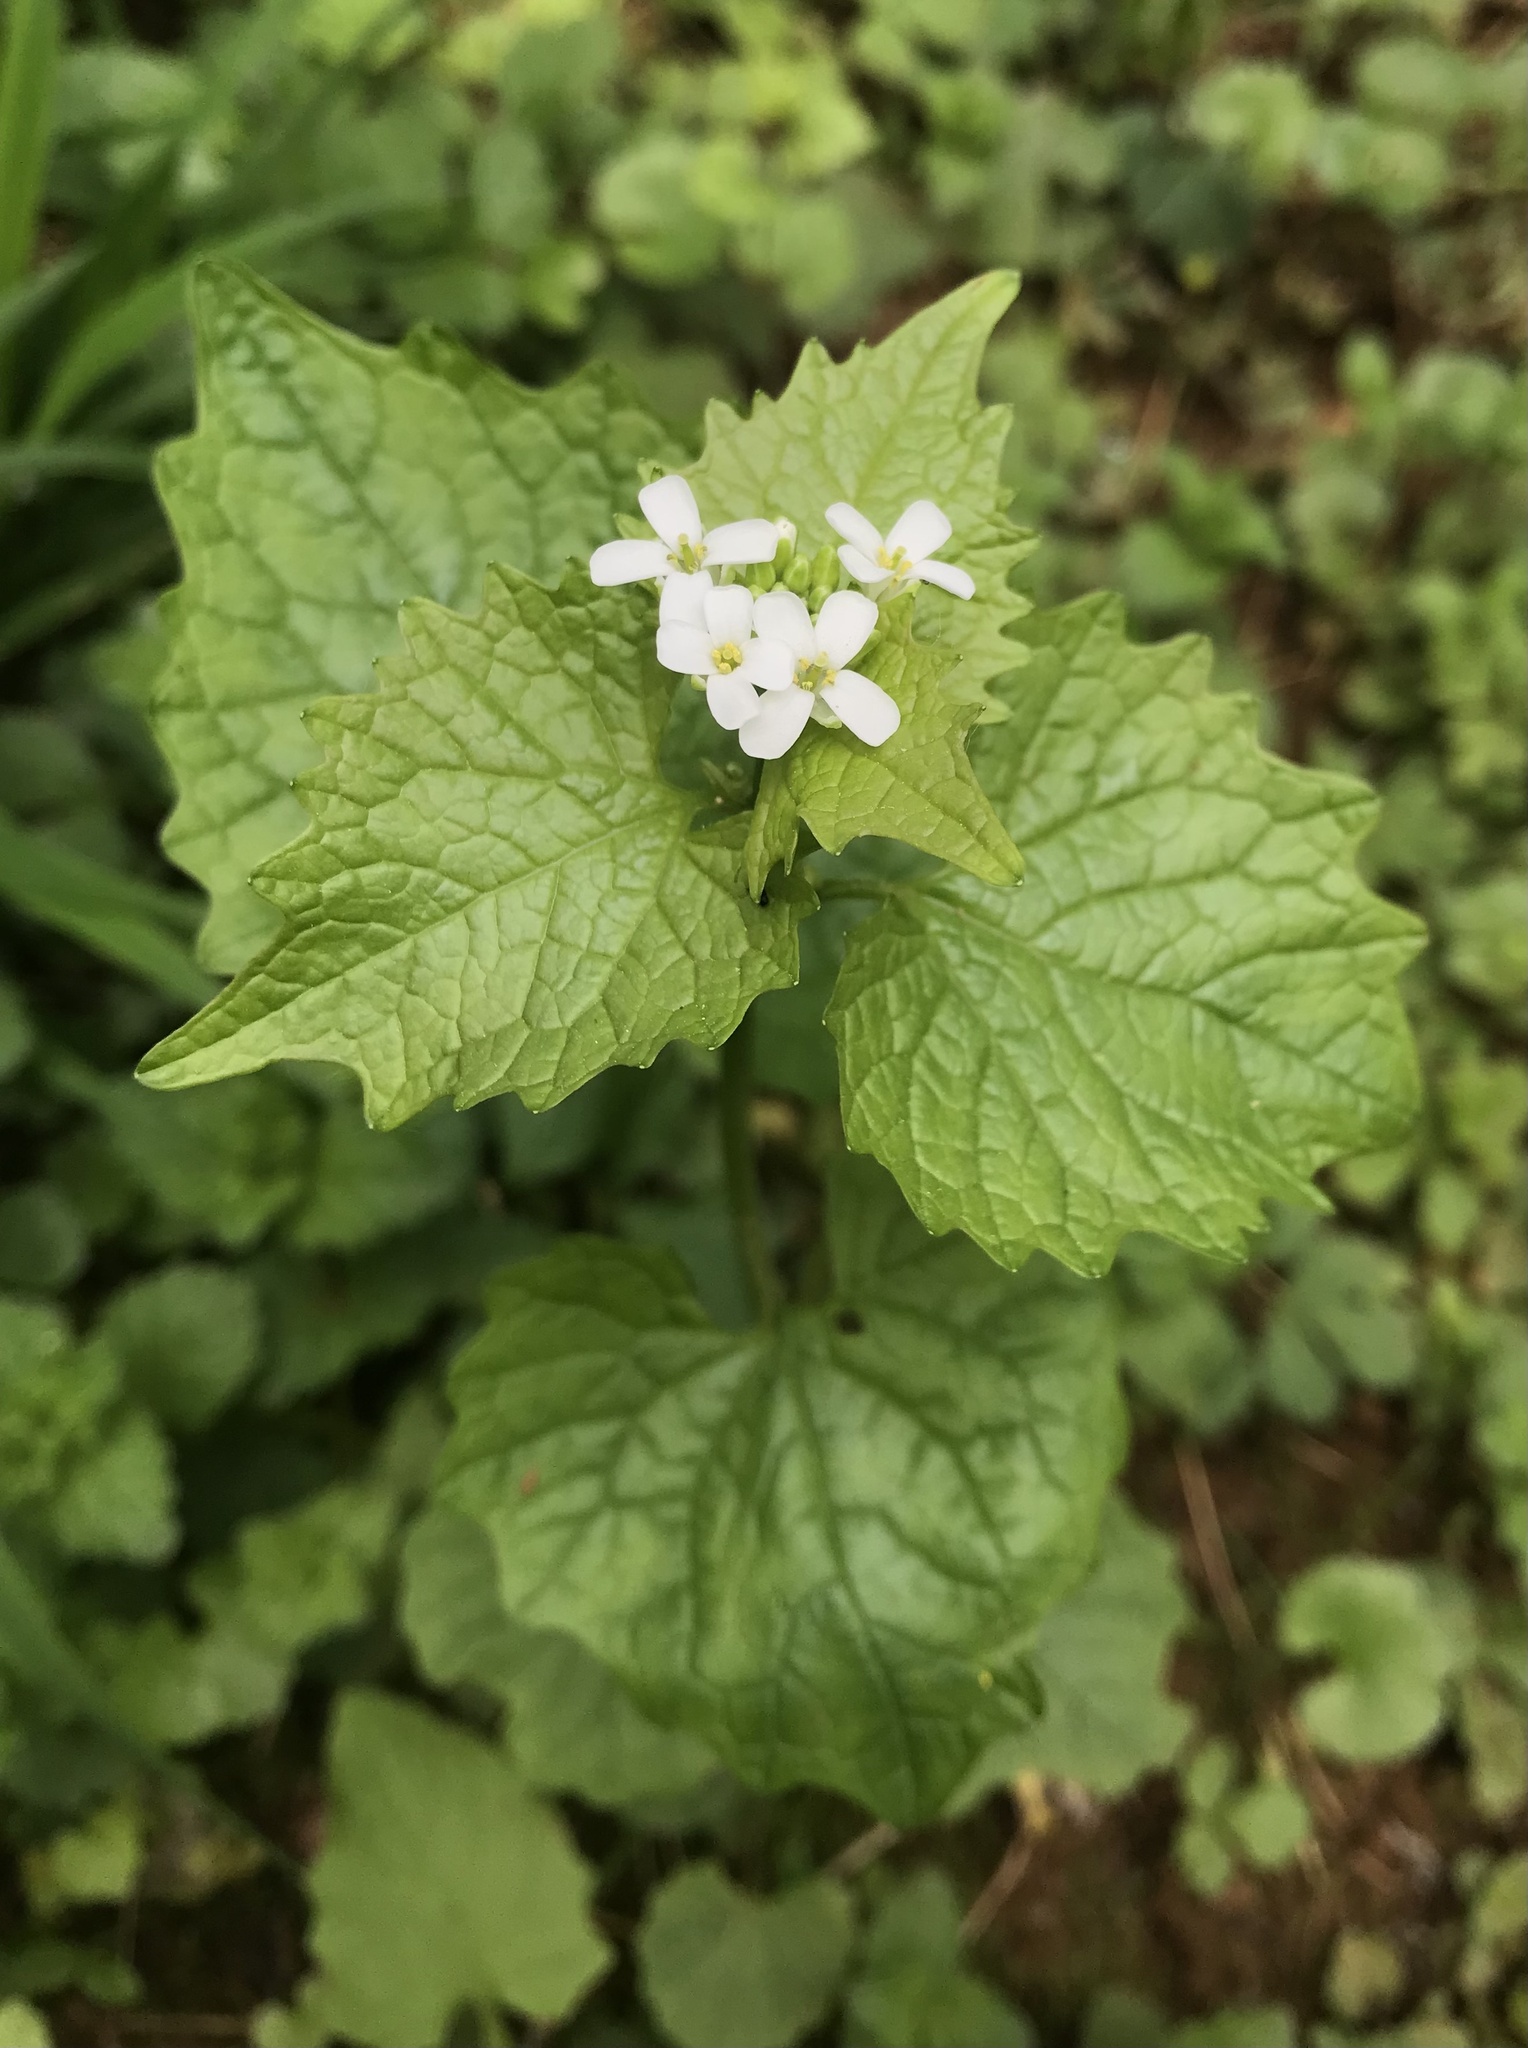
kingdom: Plantae
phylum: Tracheophyta
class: Magnoliopsida
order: Brassicales
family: Brassicaceae
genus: Alliaria
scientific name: Alliaria petiolata
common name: Garlic mustard
